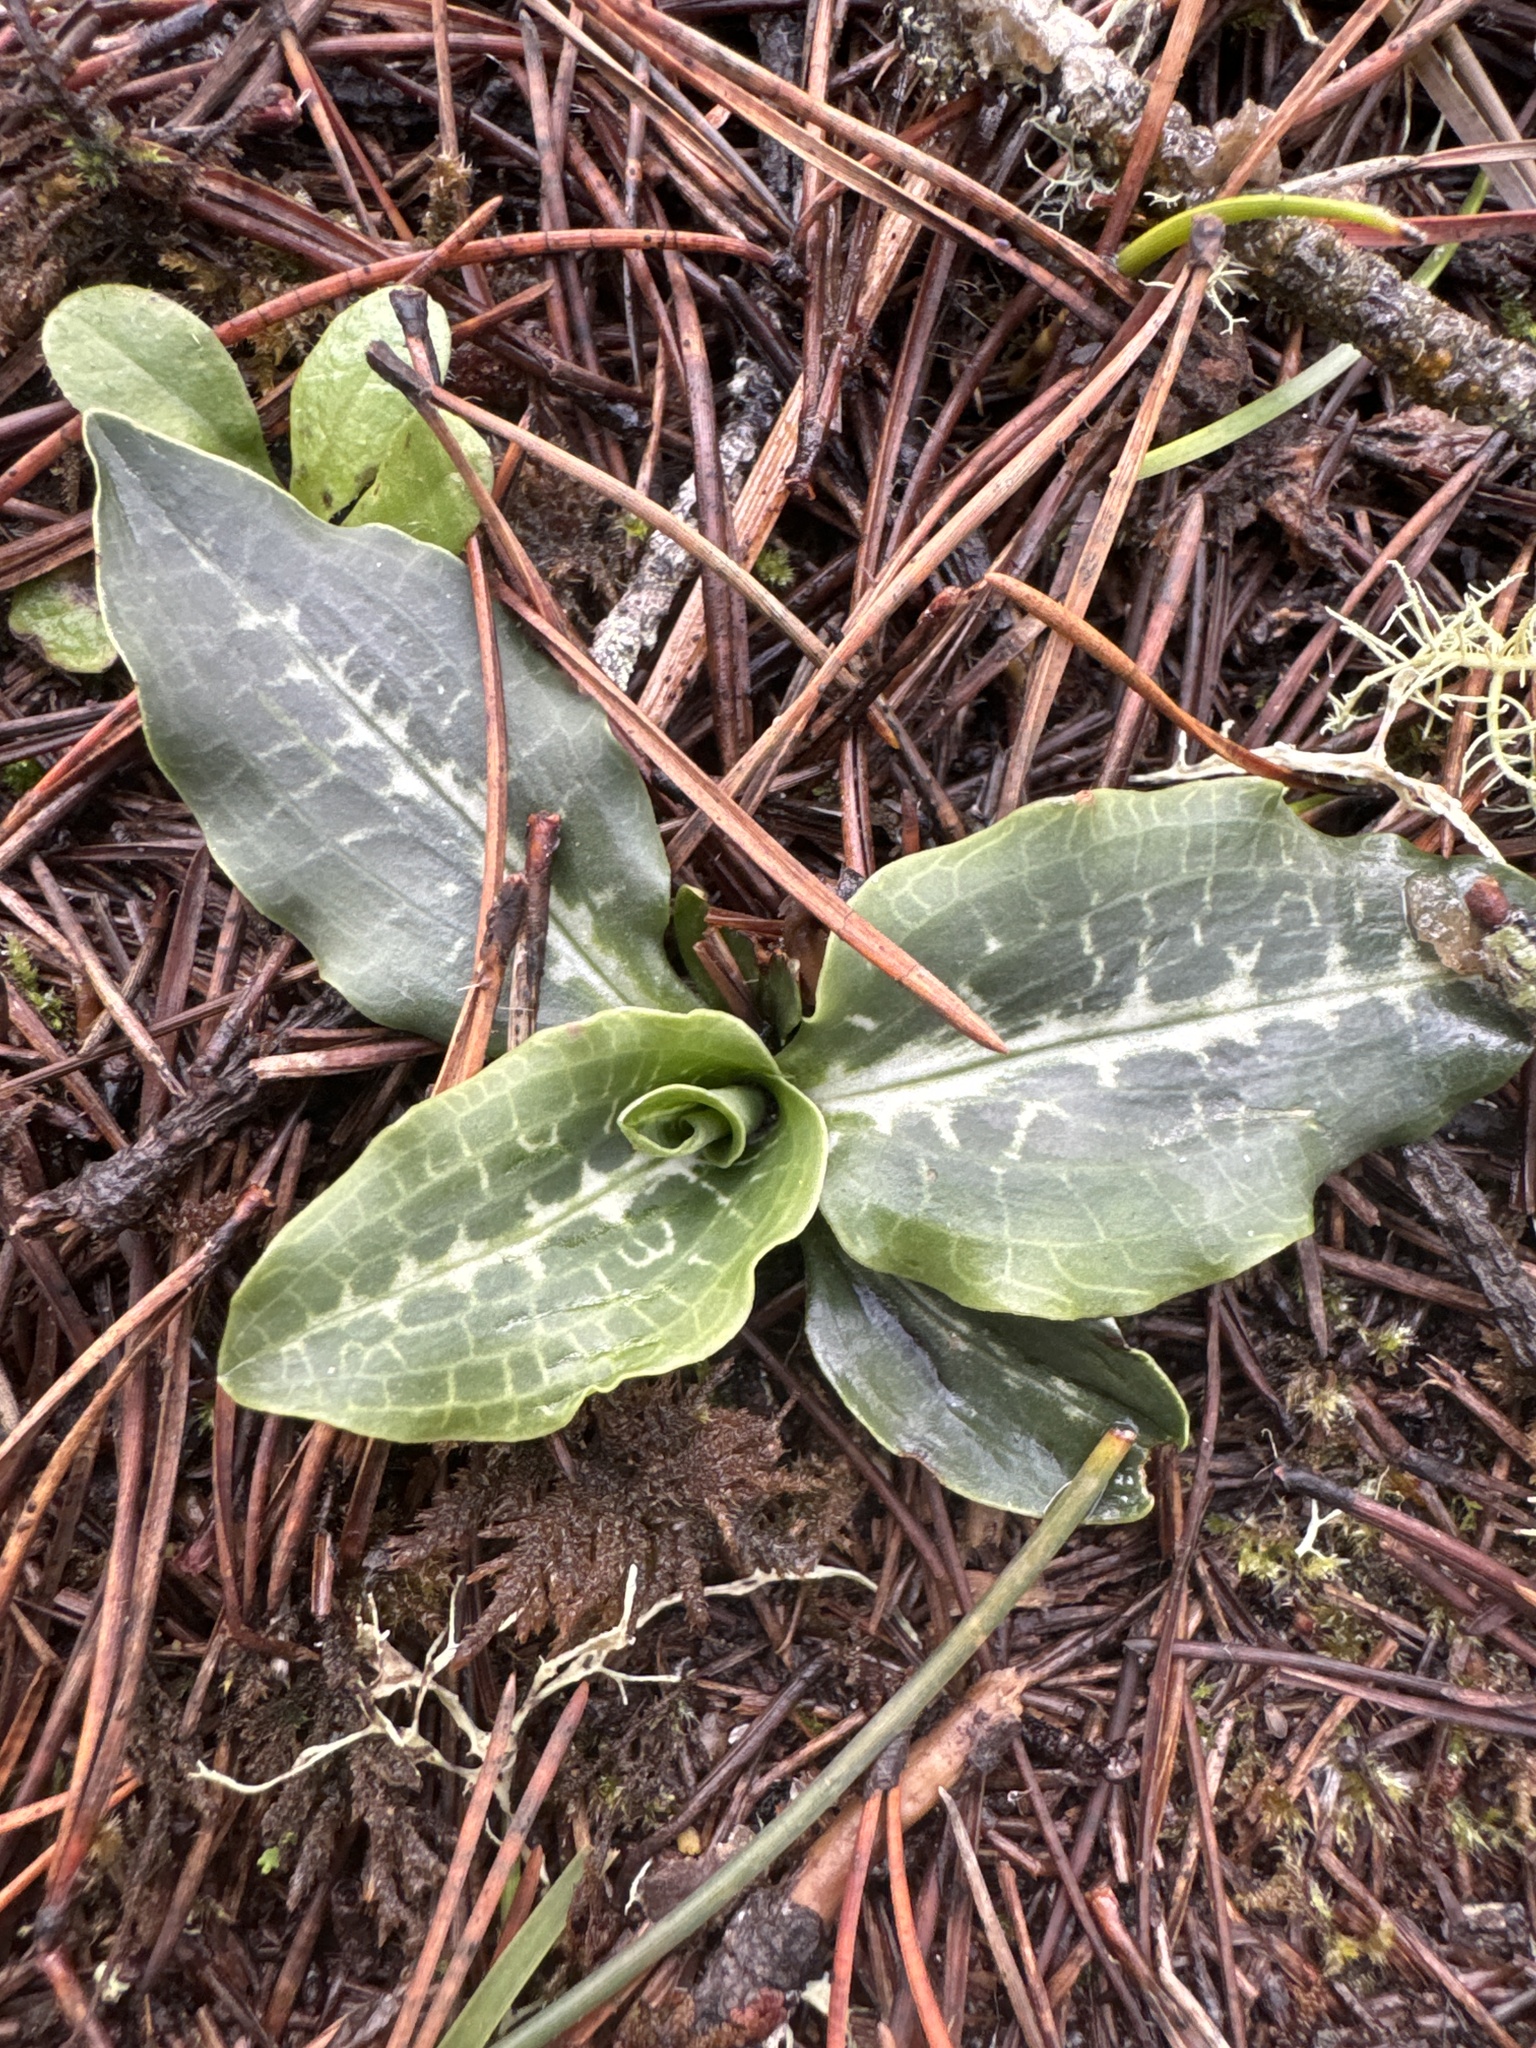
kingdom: Plantae
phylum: Tracheophyta
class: Liliopsida
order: Asparagales
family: Orchidaceae
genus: Goodyera
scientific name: Goodyera oblongifolia
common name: Giant rattlesnake-plantain
